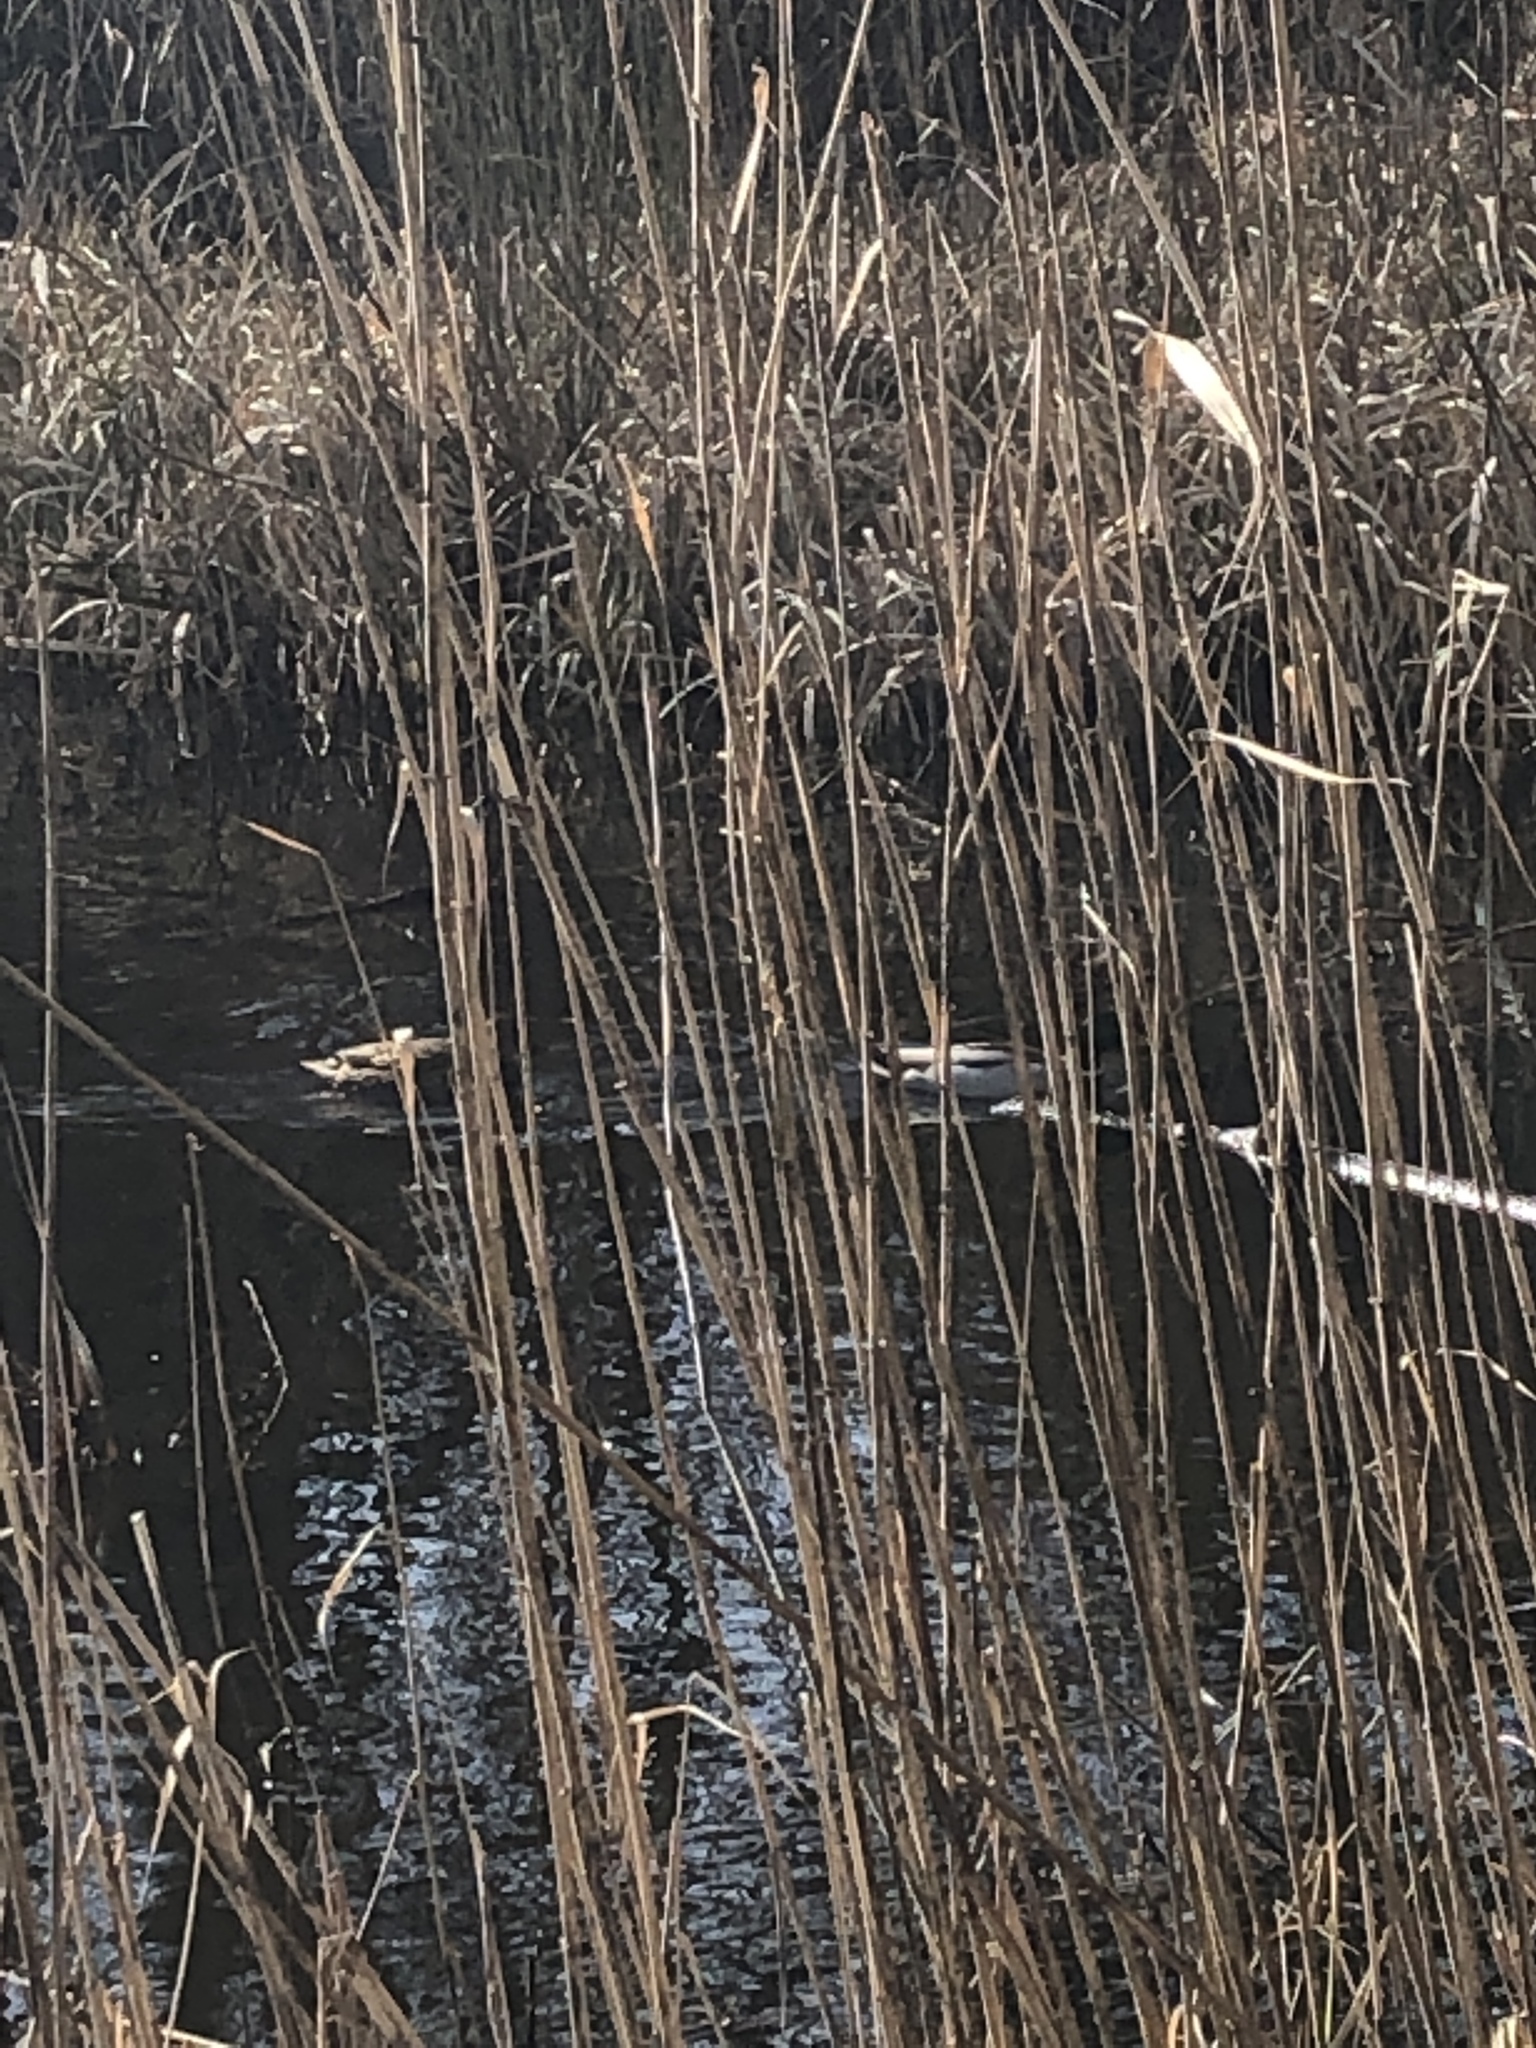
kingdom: Animalia
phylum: Chordata
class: Aves
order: Anseriformes
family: Anatidae
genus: Anas
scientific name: Anas platyrhynchos
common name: Mallard
